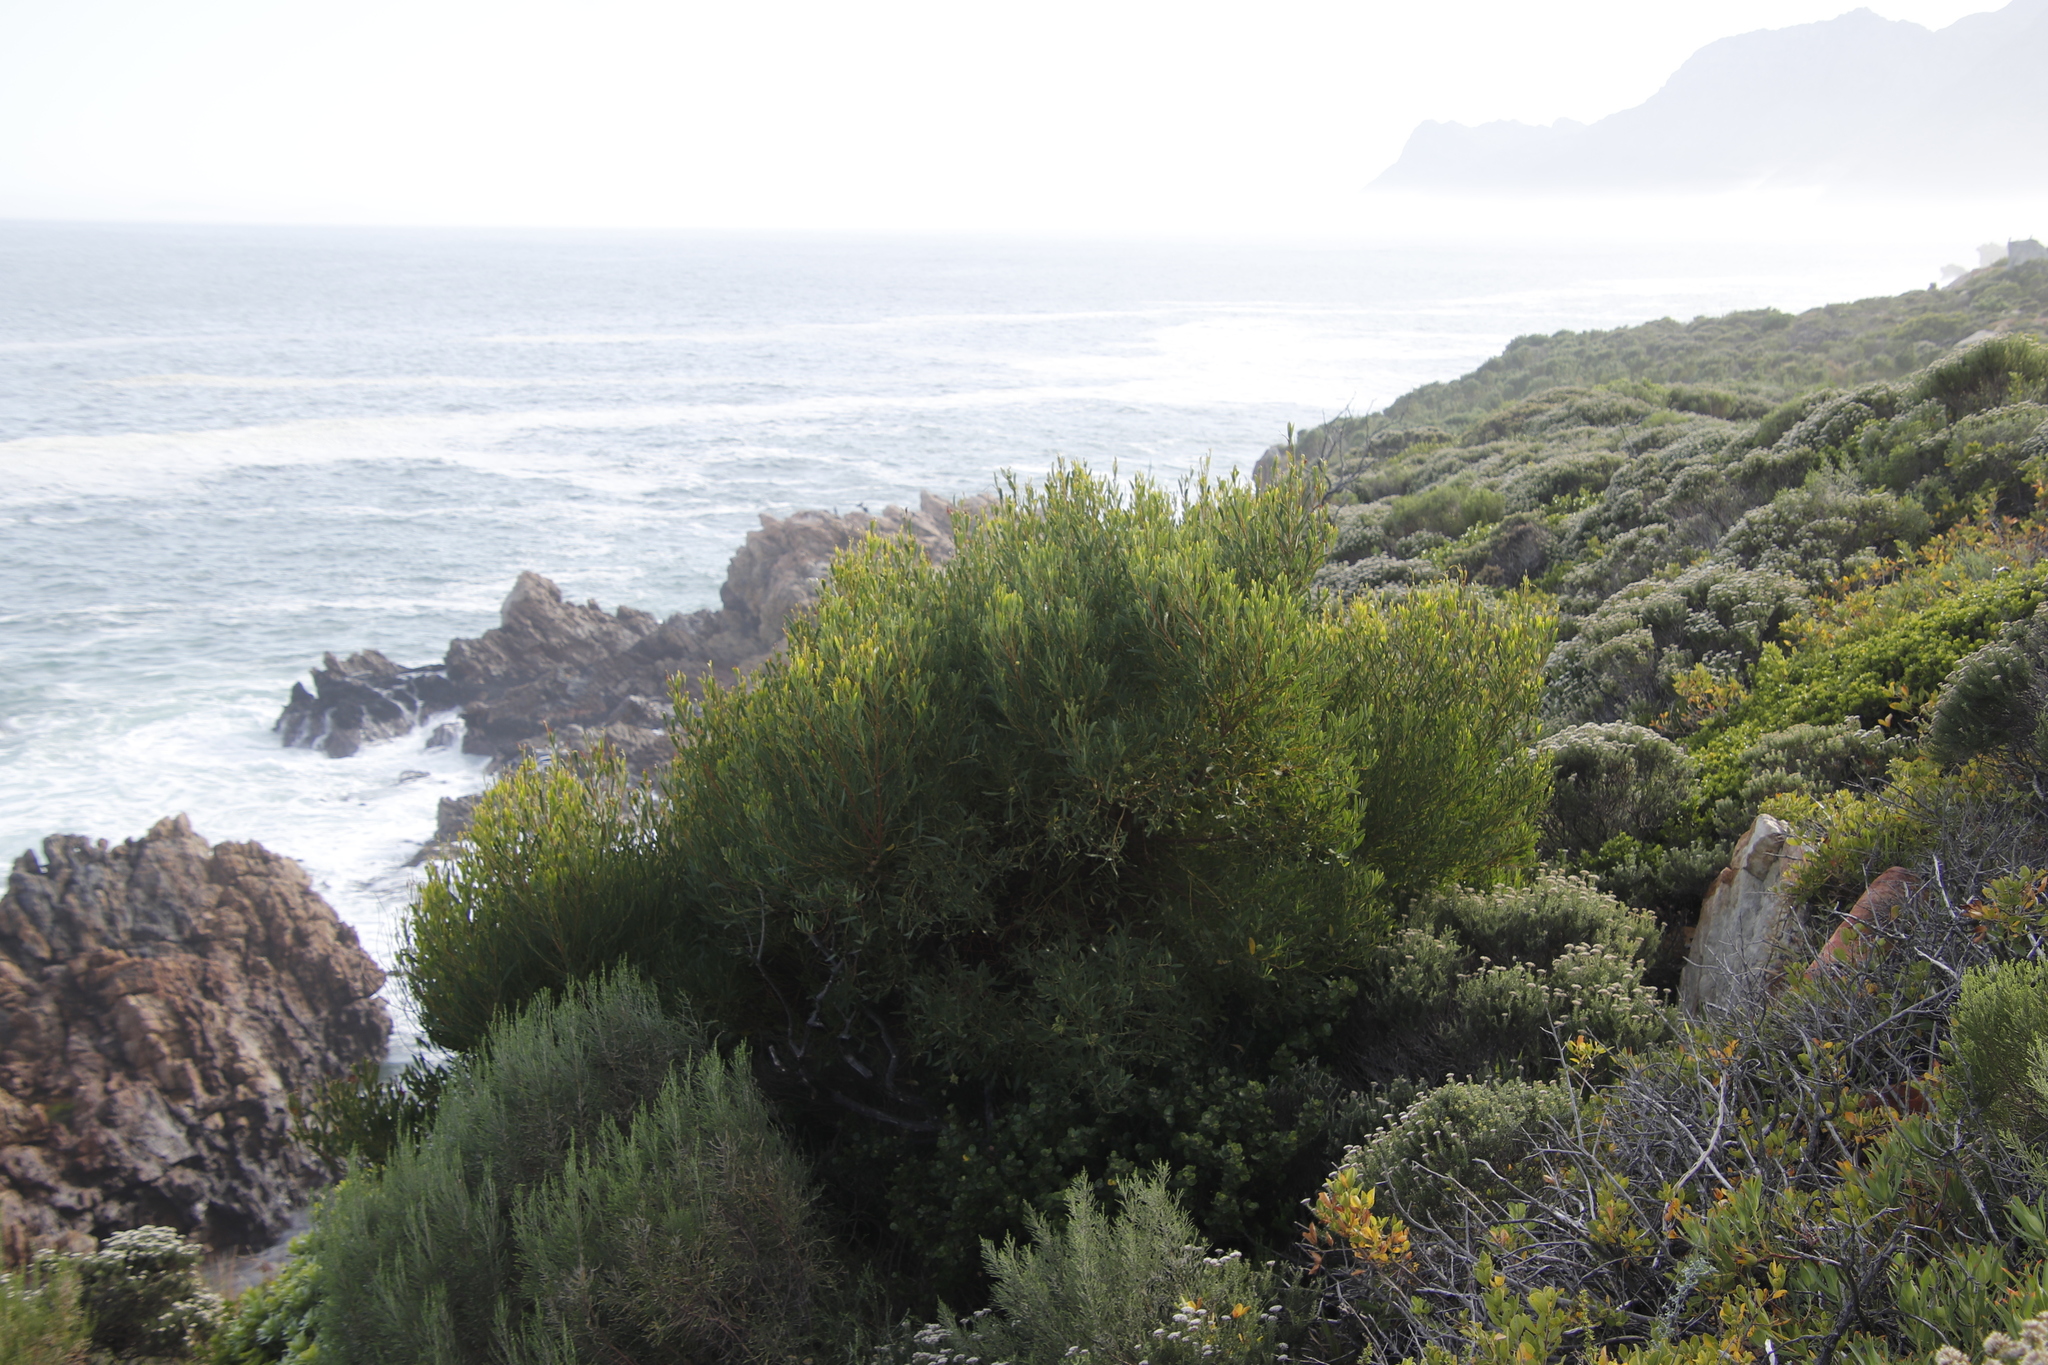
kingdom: Plantae
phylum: Tracheophyta
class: Magnoliopsida
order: Fabales
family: Fabaceae
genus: Acacia
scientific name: Acacia cyclops
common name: Coastal wattle
